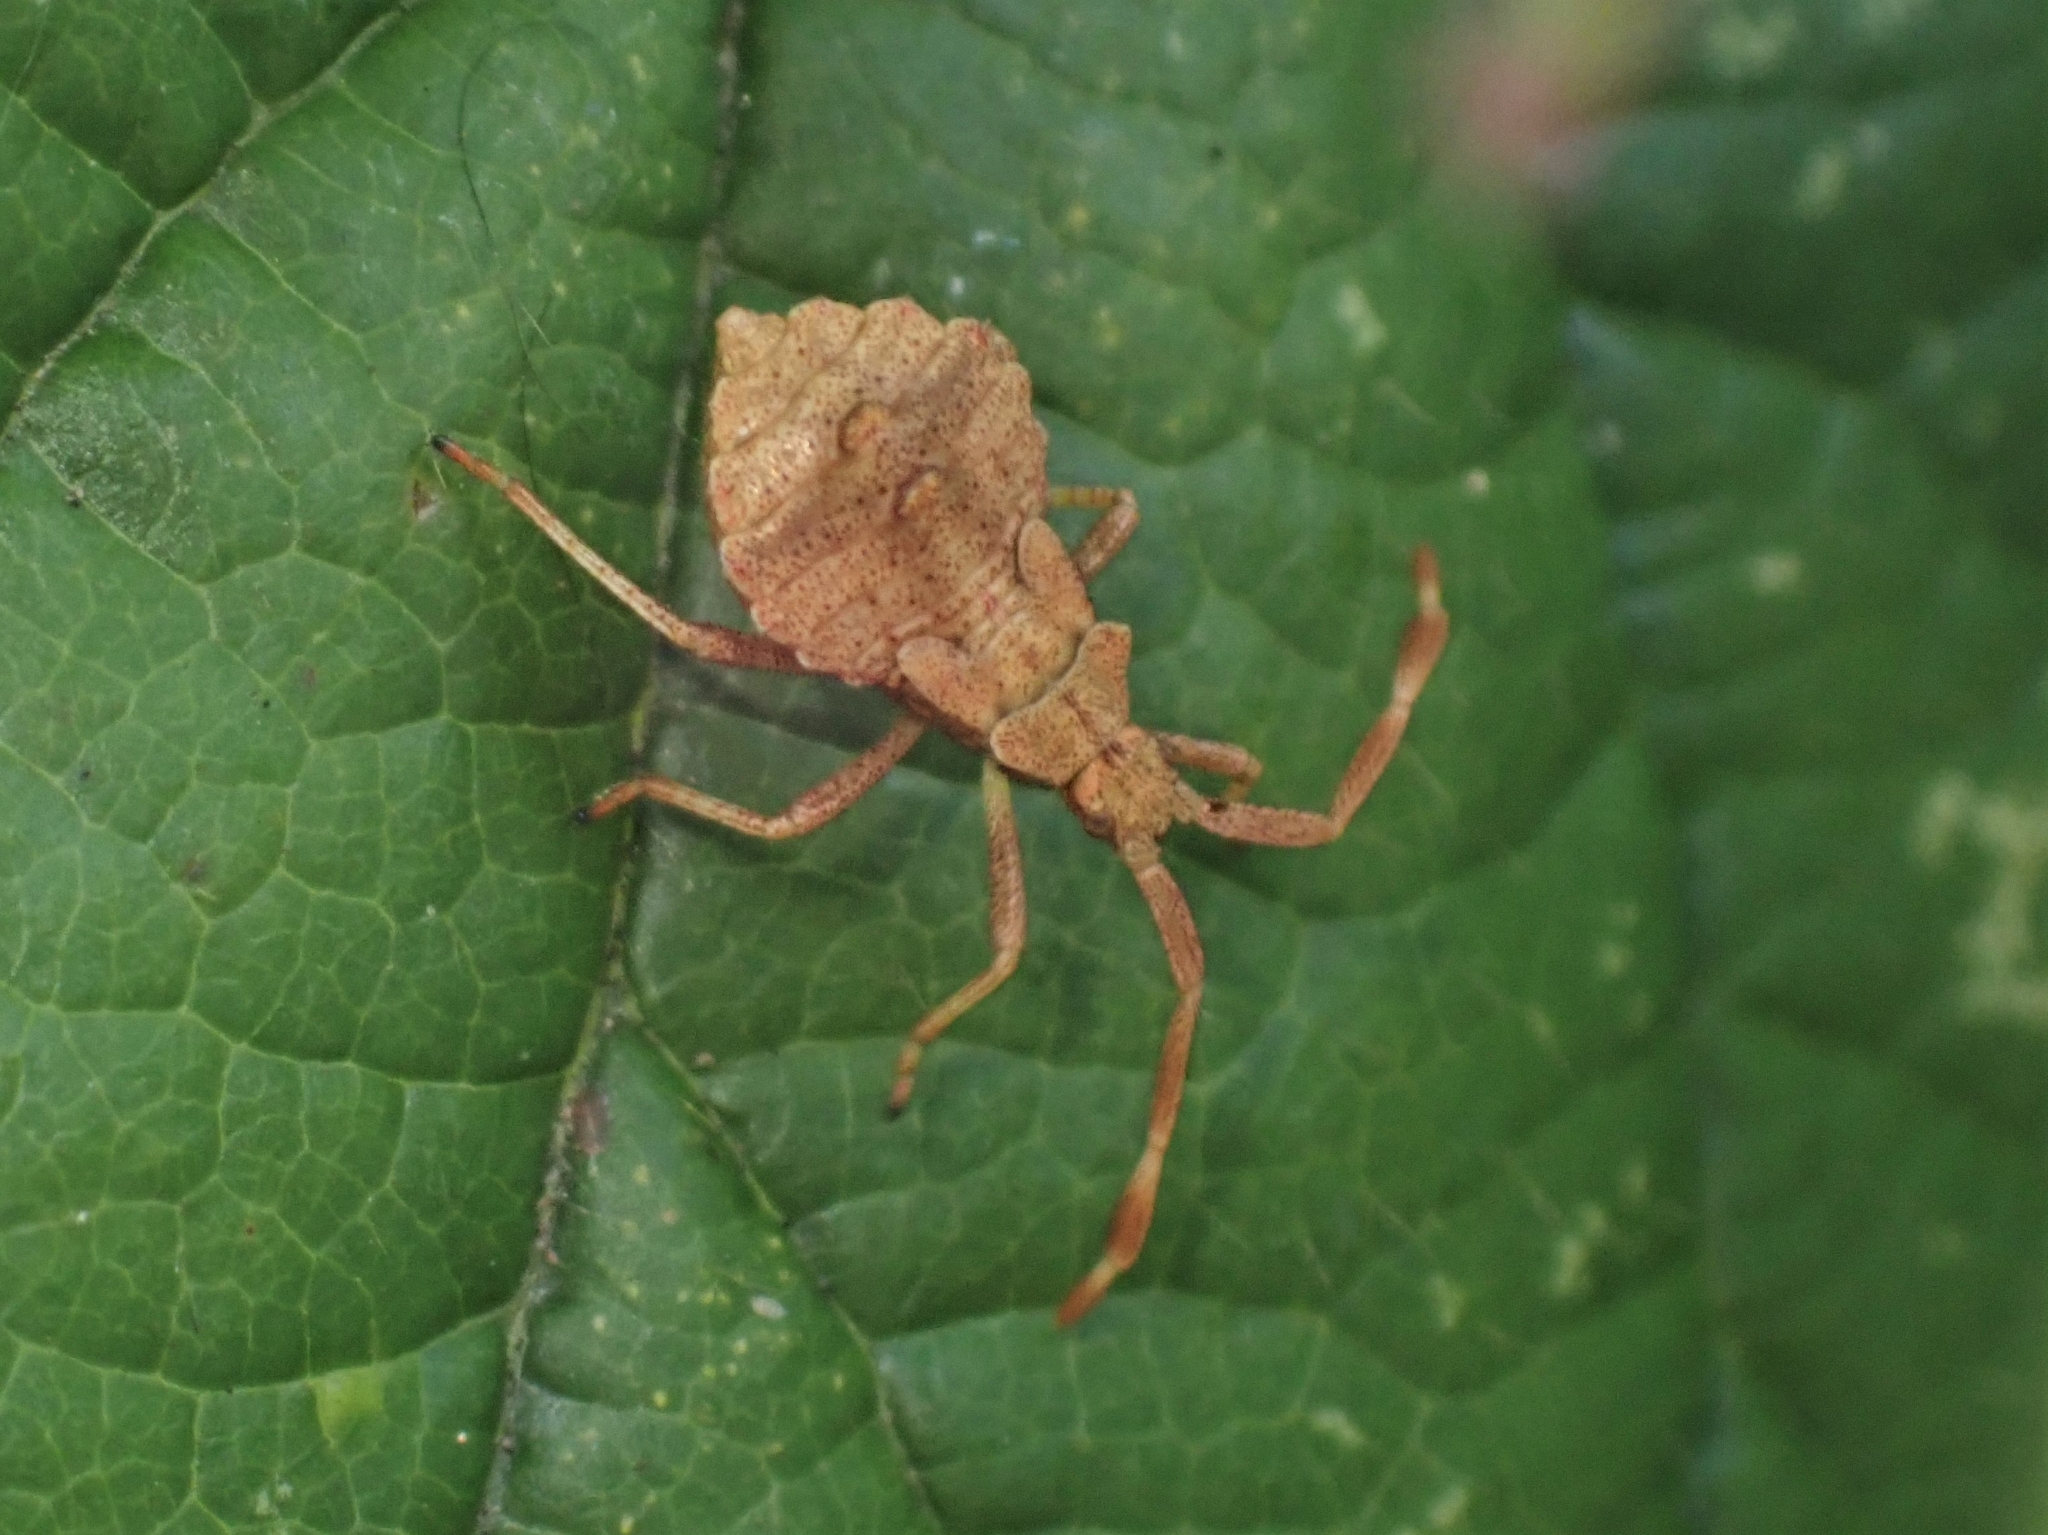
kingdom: Animalia
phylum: Arthropoda
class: Insecta
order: Hemiptera
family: Coreidae
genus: Coreus
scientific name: Coreus marginatus
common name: Dock bug
